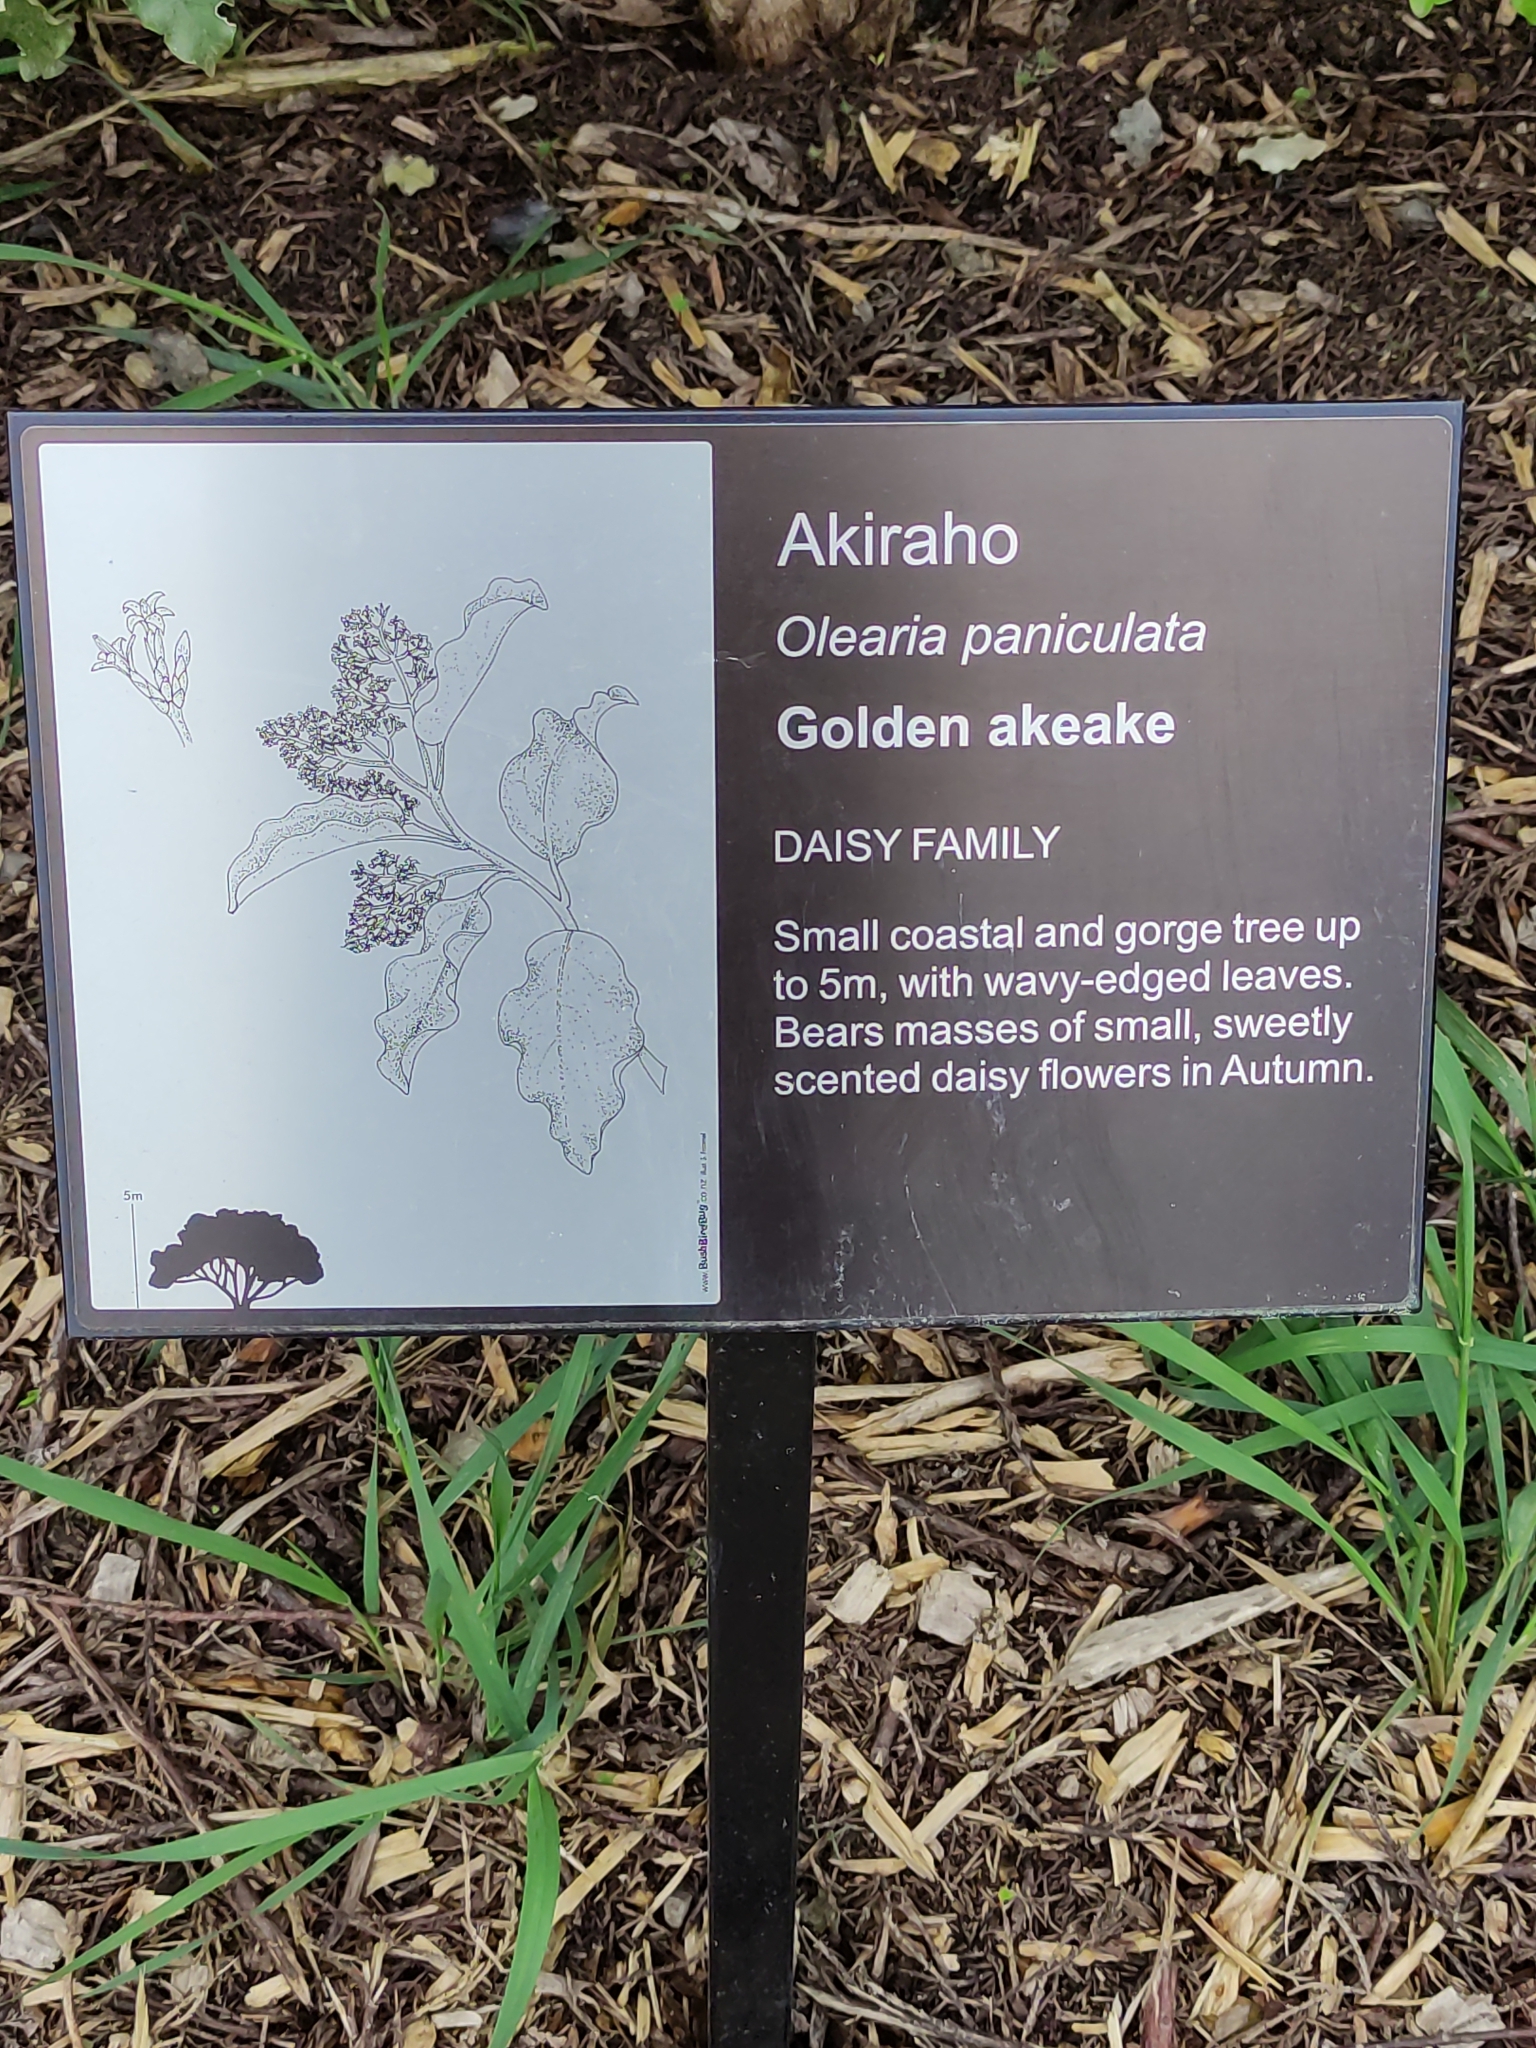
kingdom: Plantae
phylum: Tracheophyta
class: Magnoliopsida
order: Asterales
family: Asteraceae
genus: Olearia
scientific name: Olearia paniculata
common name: Akiraho
